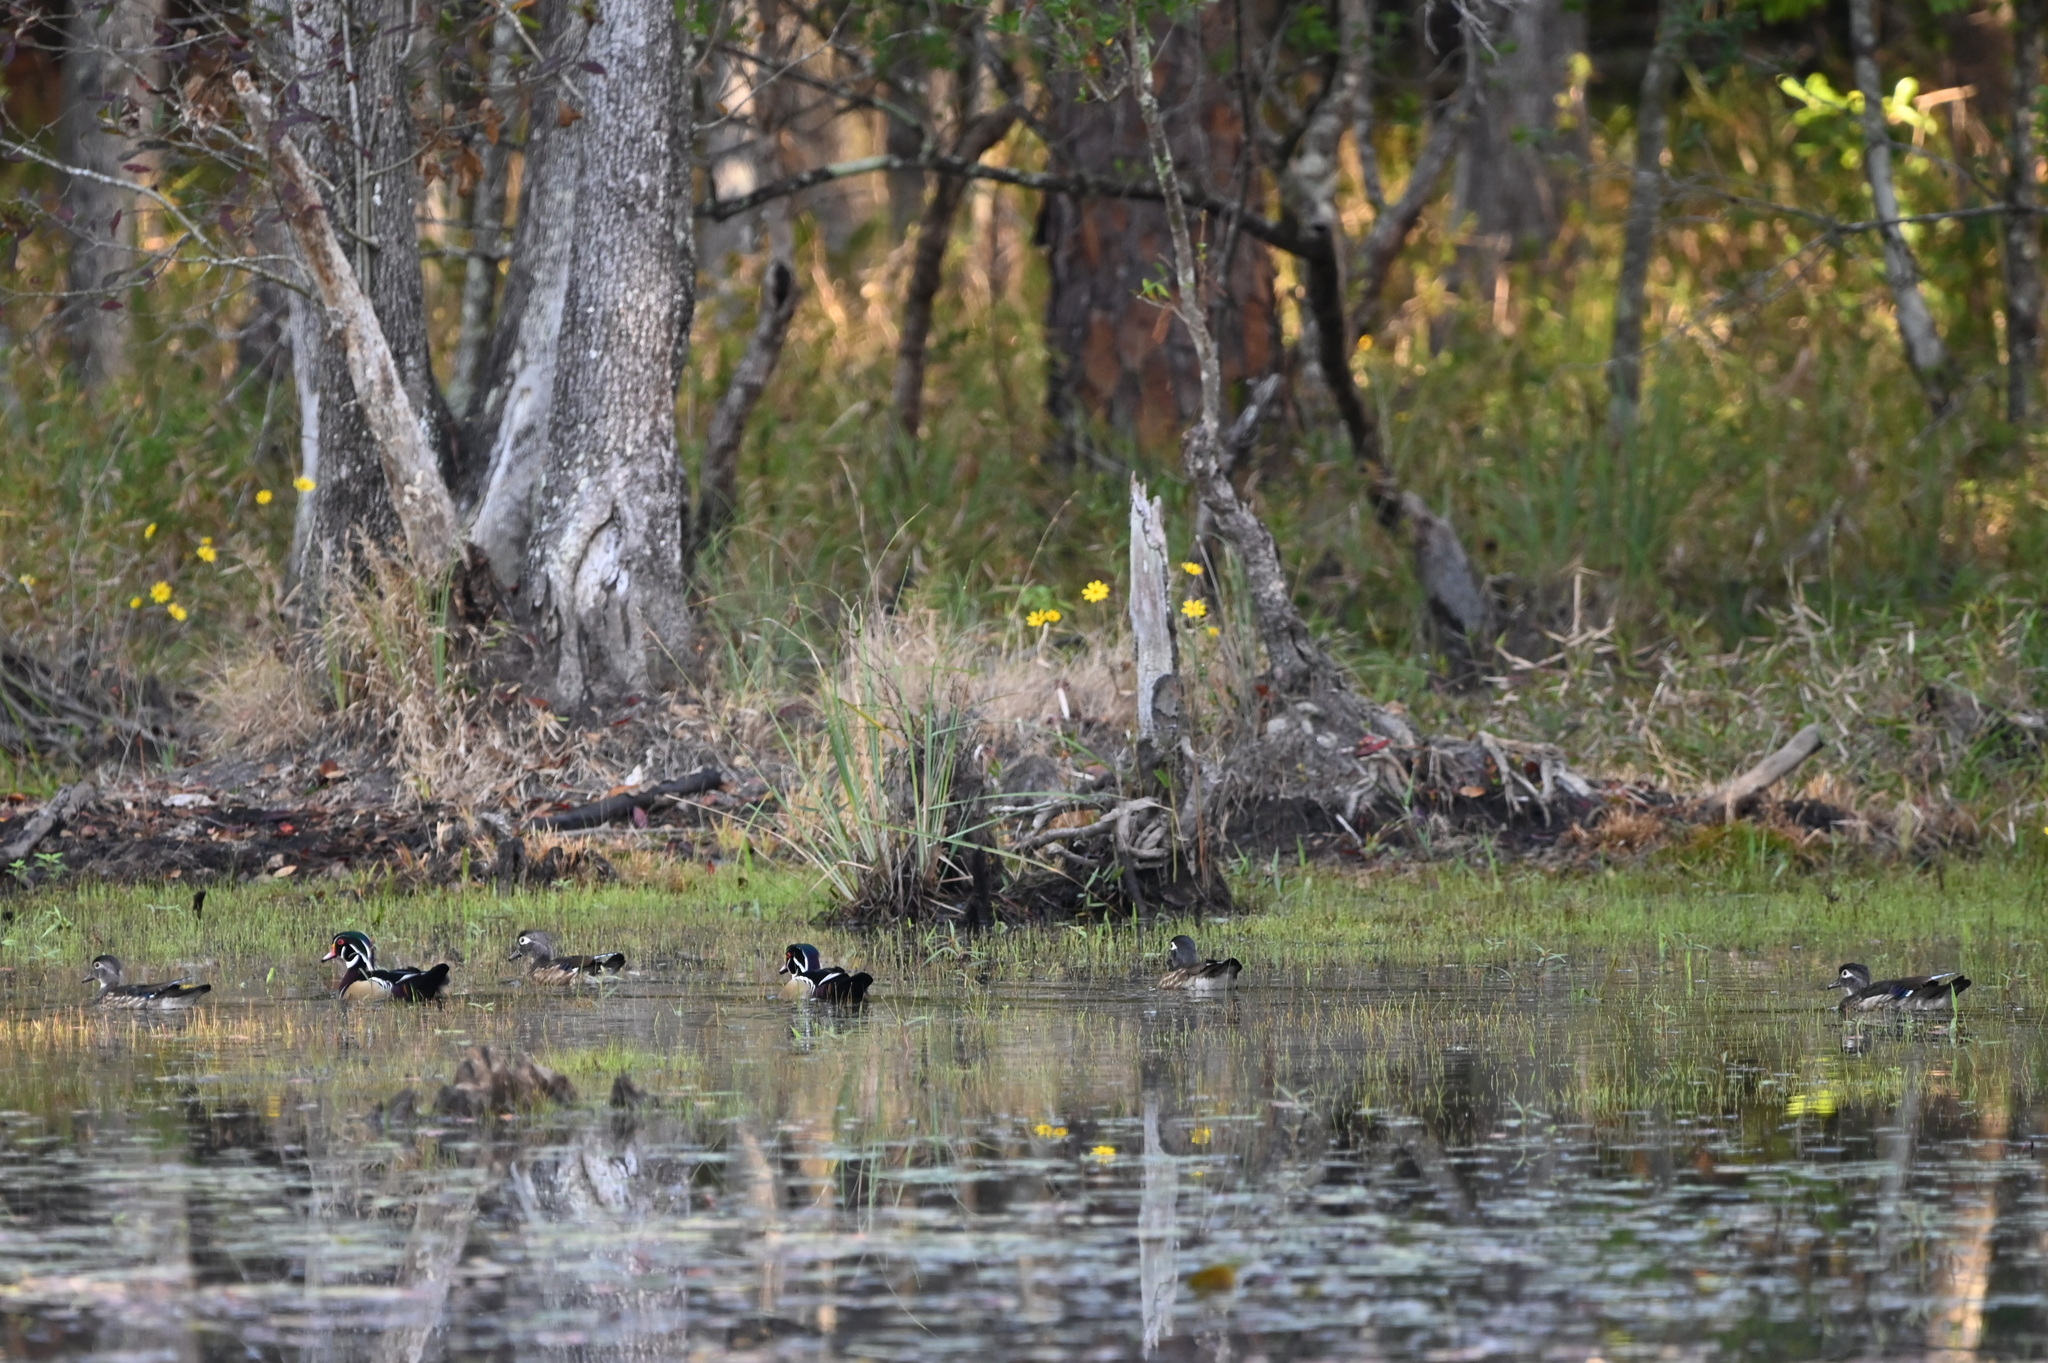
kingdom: Animalia
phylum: Chordata
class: Aves
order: Anseriformes
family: Anatidae
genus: Aix
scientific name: Aix sponsa
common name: Wood duck
